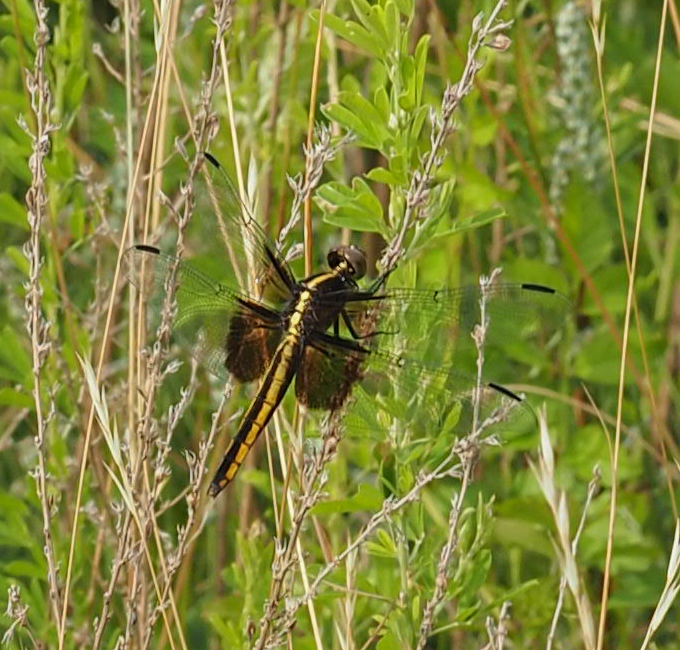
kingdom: Animalia
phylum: Arthropoda
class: Insecta
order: Odonata
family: Libellulidae
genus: Libellula
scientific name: Libellula luctuosa
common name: Widow skimmer
